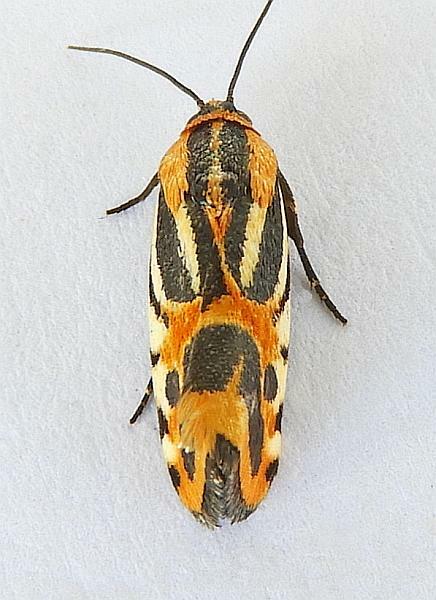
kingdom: Animalia
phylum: Arthropoda
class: Insecta
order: Lepidoptera
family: Noctuidae
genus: Acontia
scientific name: Acontia onagrus
